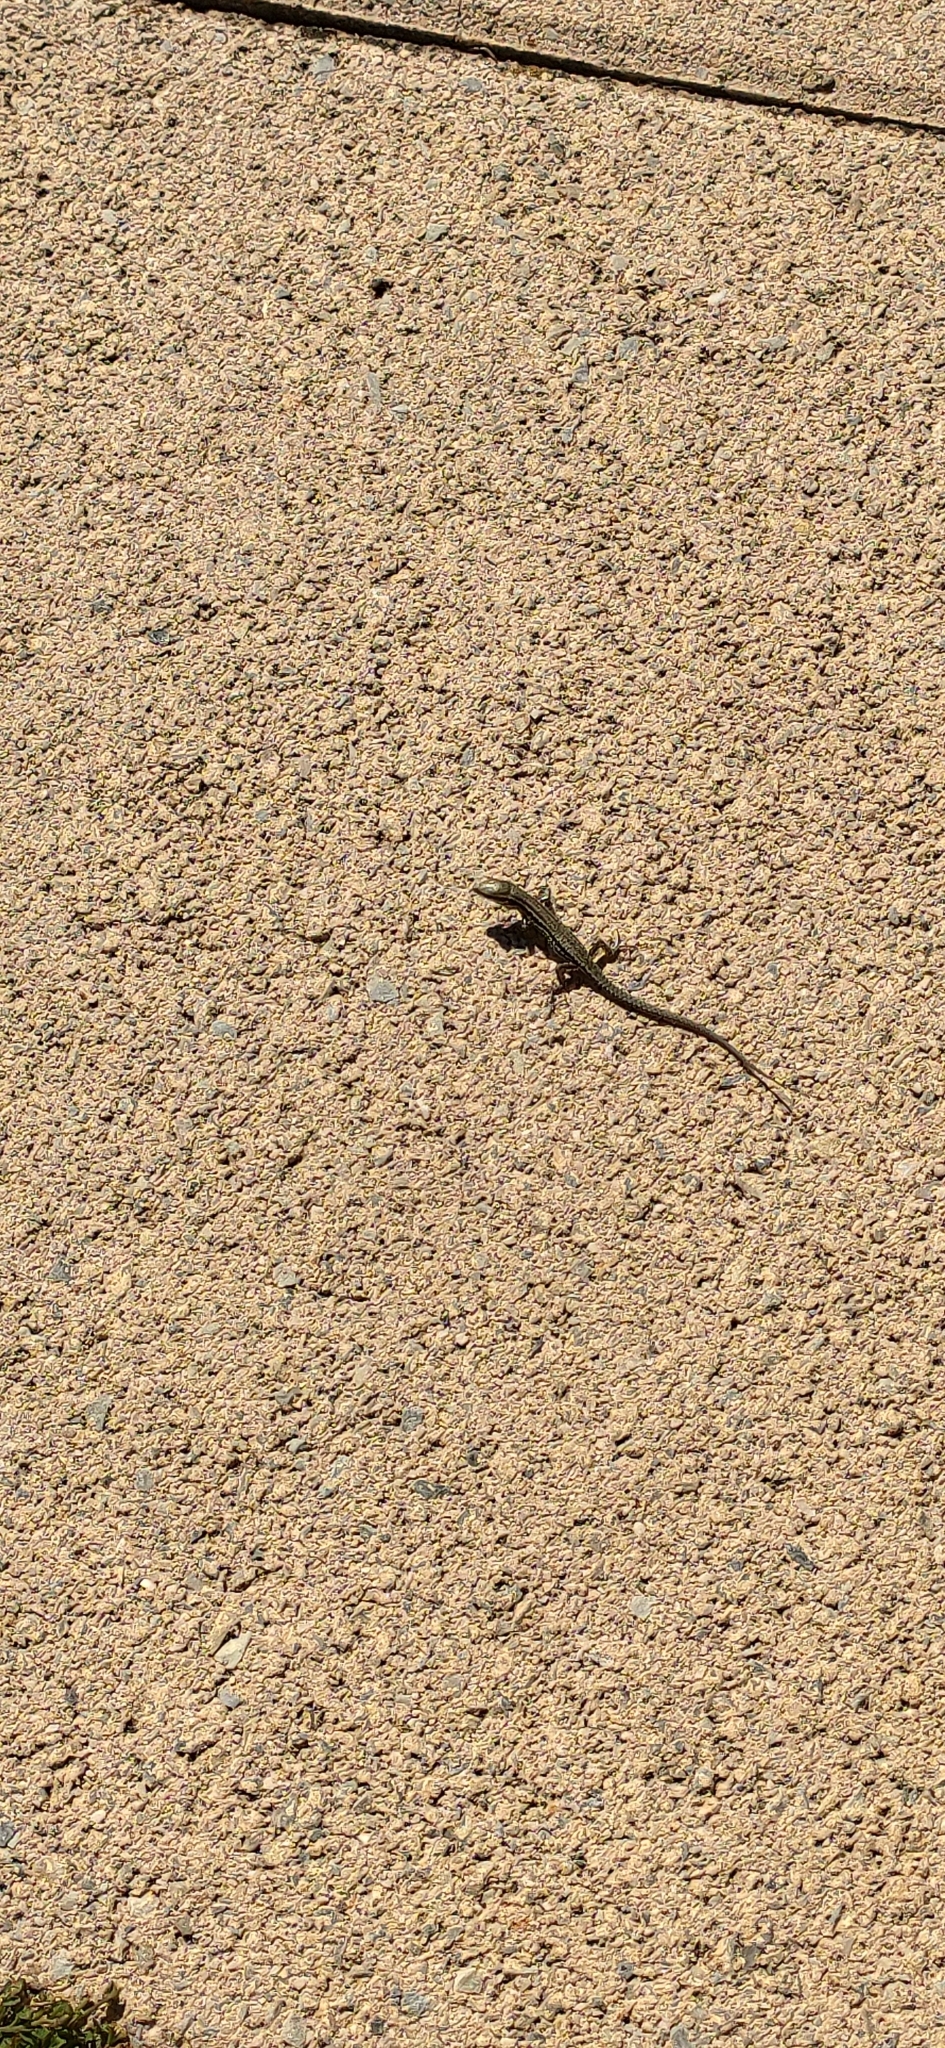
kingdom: Animalia
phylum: Chordata
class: Squamata
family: Lacertidae
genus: Podarcis
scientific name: Podarcis muralis
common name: Common wall lizard
